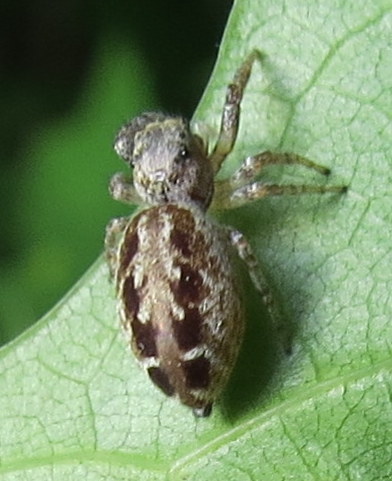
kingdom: Animalia
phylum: Arthropoda
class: Arachnida
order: Araneae
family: Salticidae
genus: Pelegrina
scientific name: Pelegrina proterva
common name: Common white-cheeked jumping spider
